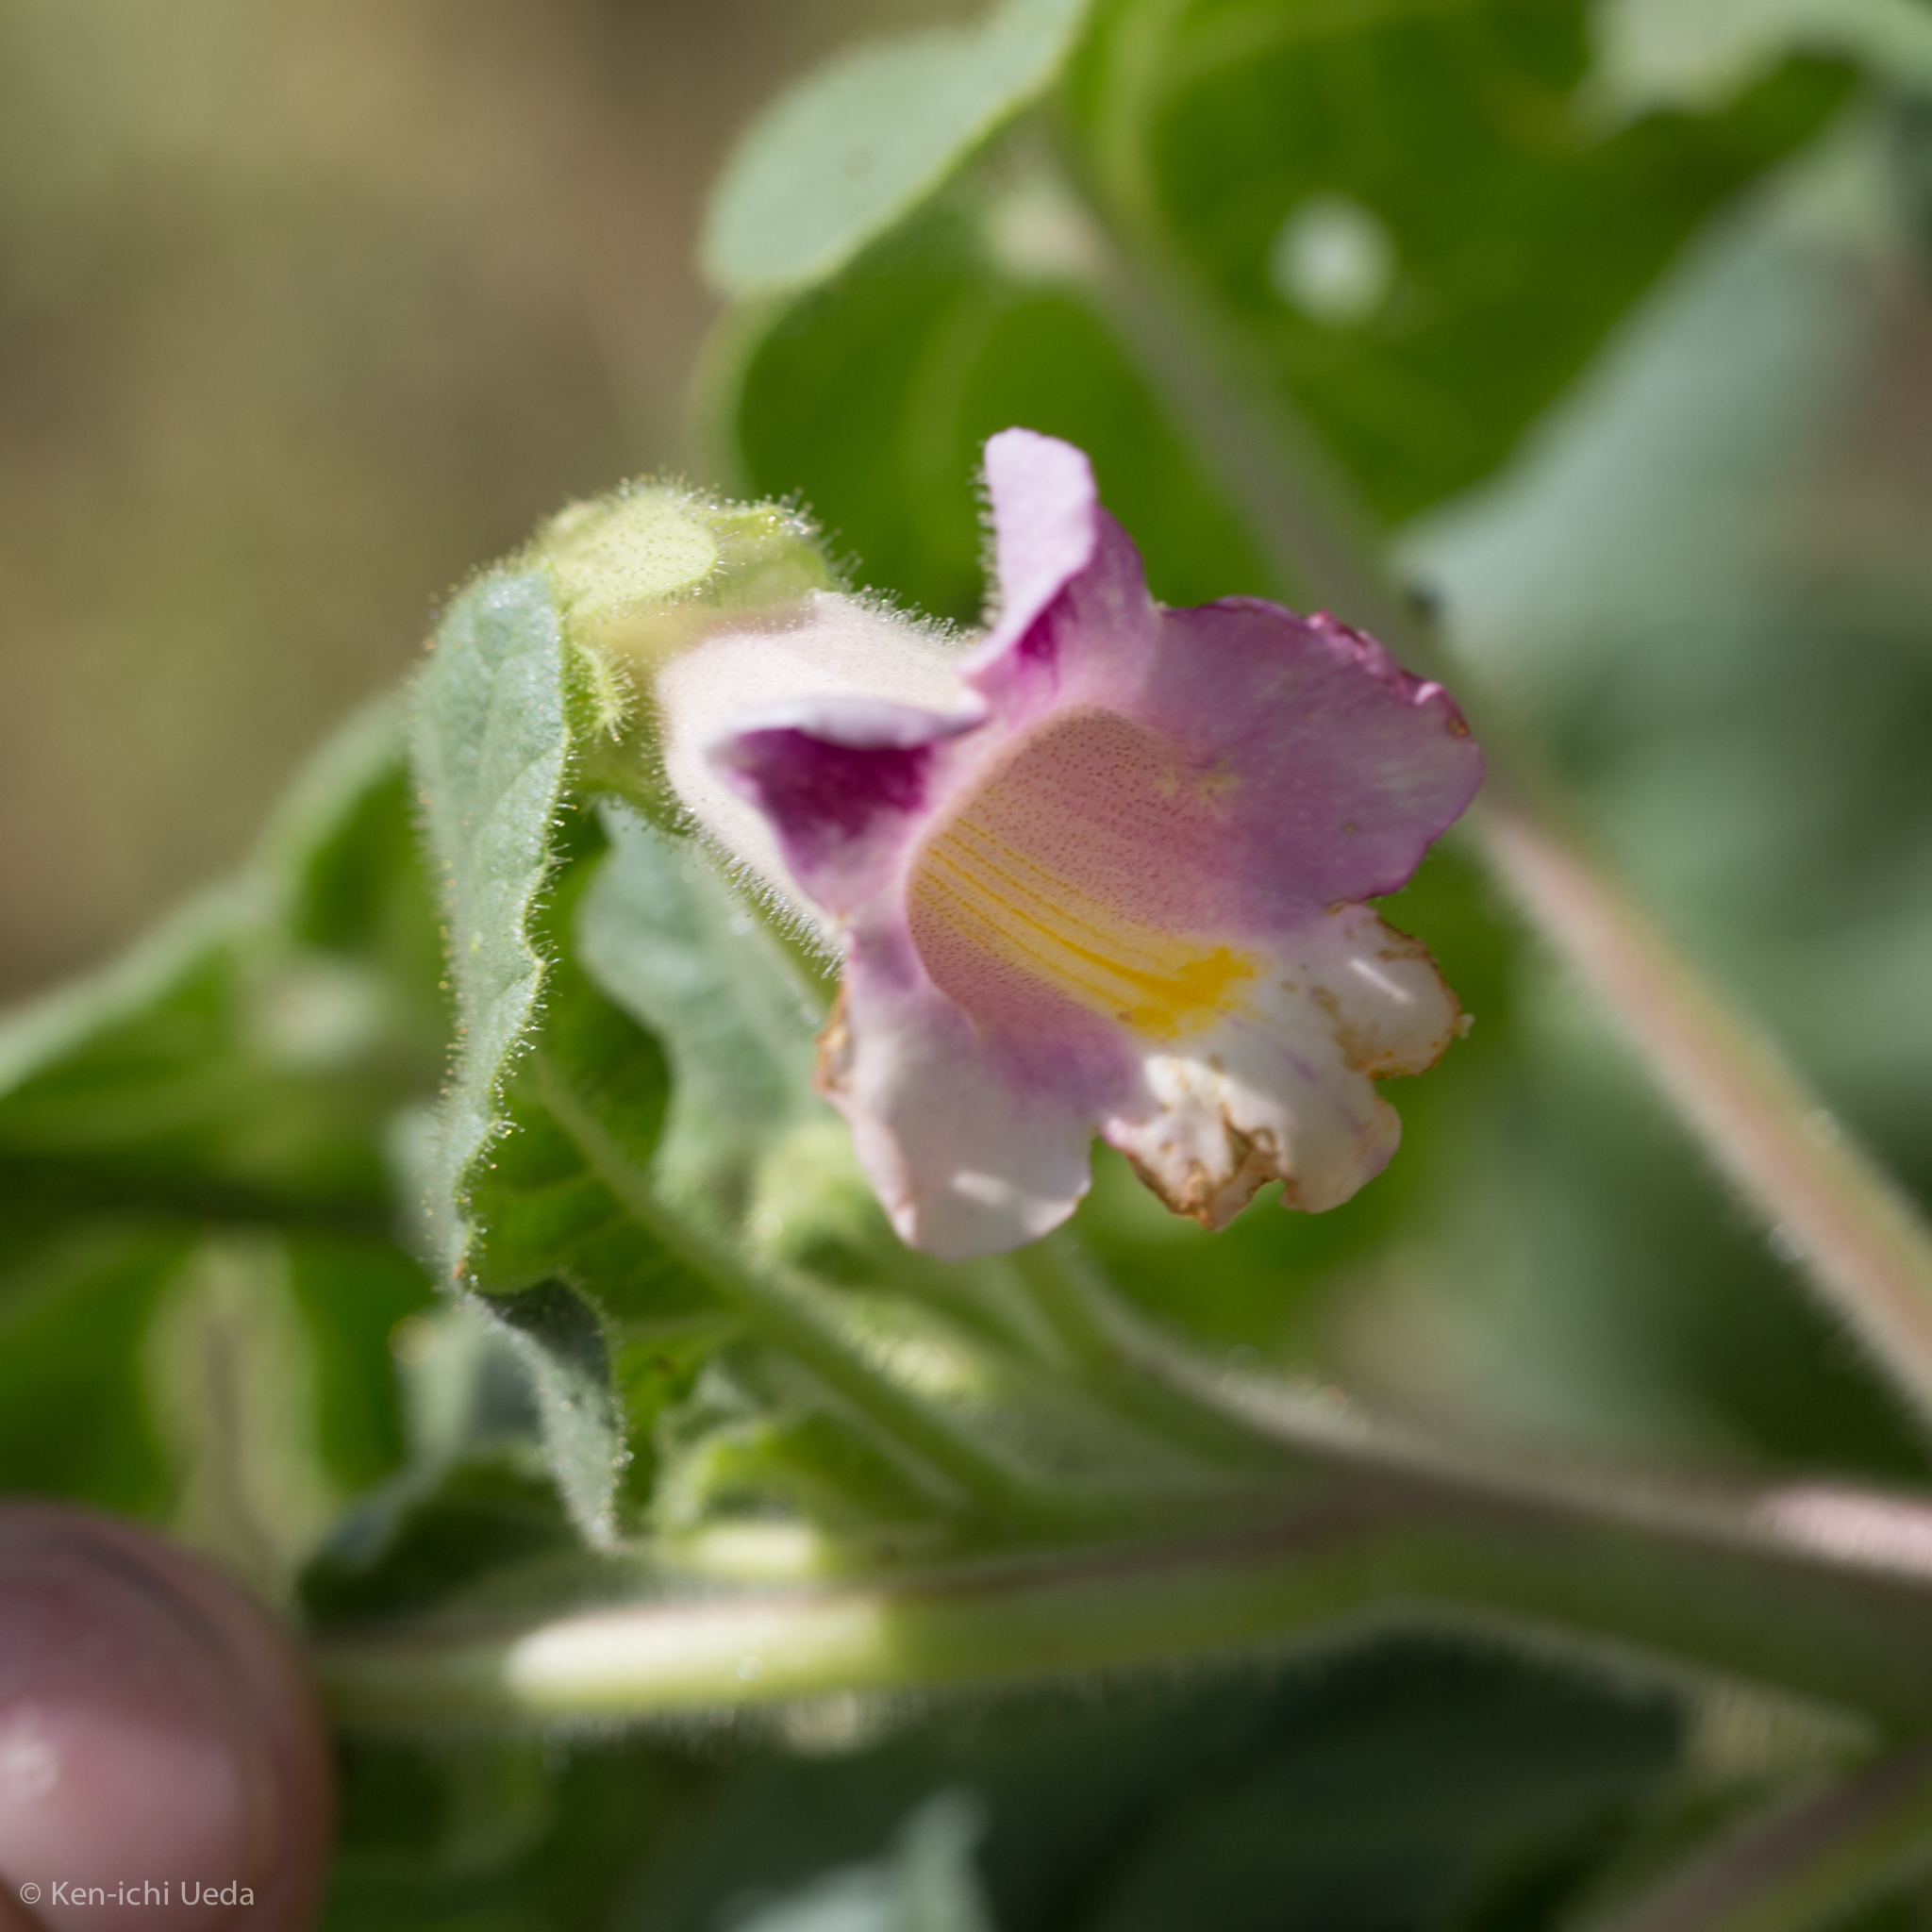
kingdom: Plantae
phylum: Tracheophyta
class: Magnoliopsida
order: Lamiales
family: Martyniaceae
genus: Proboscidea
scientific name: Proboscidea parviflora
